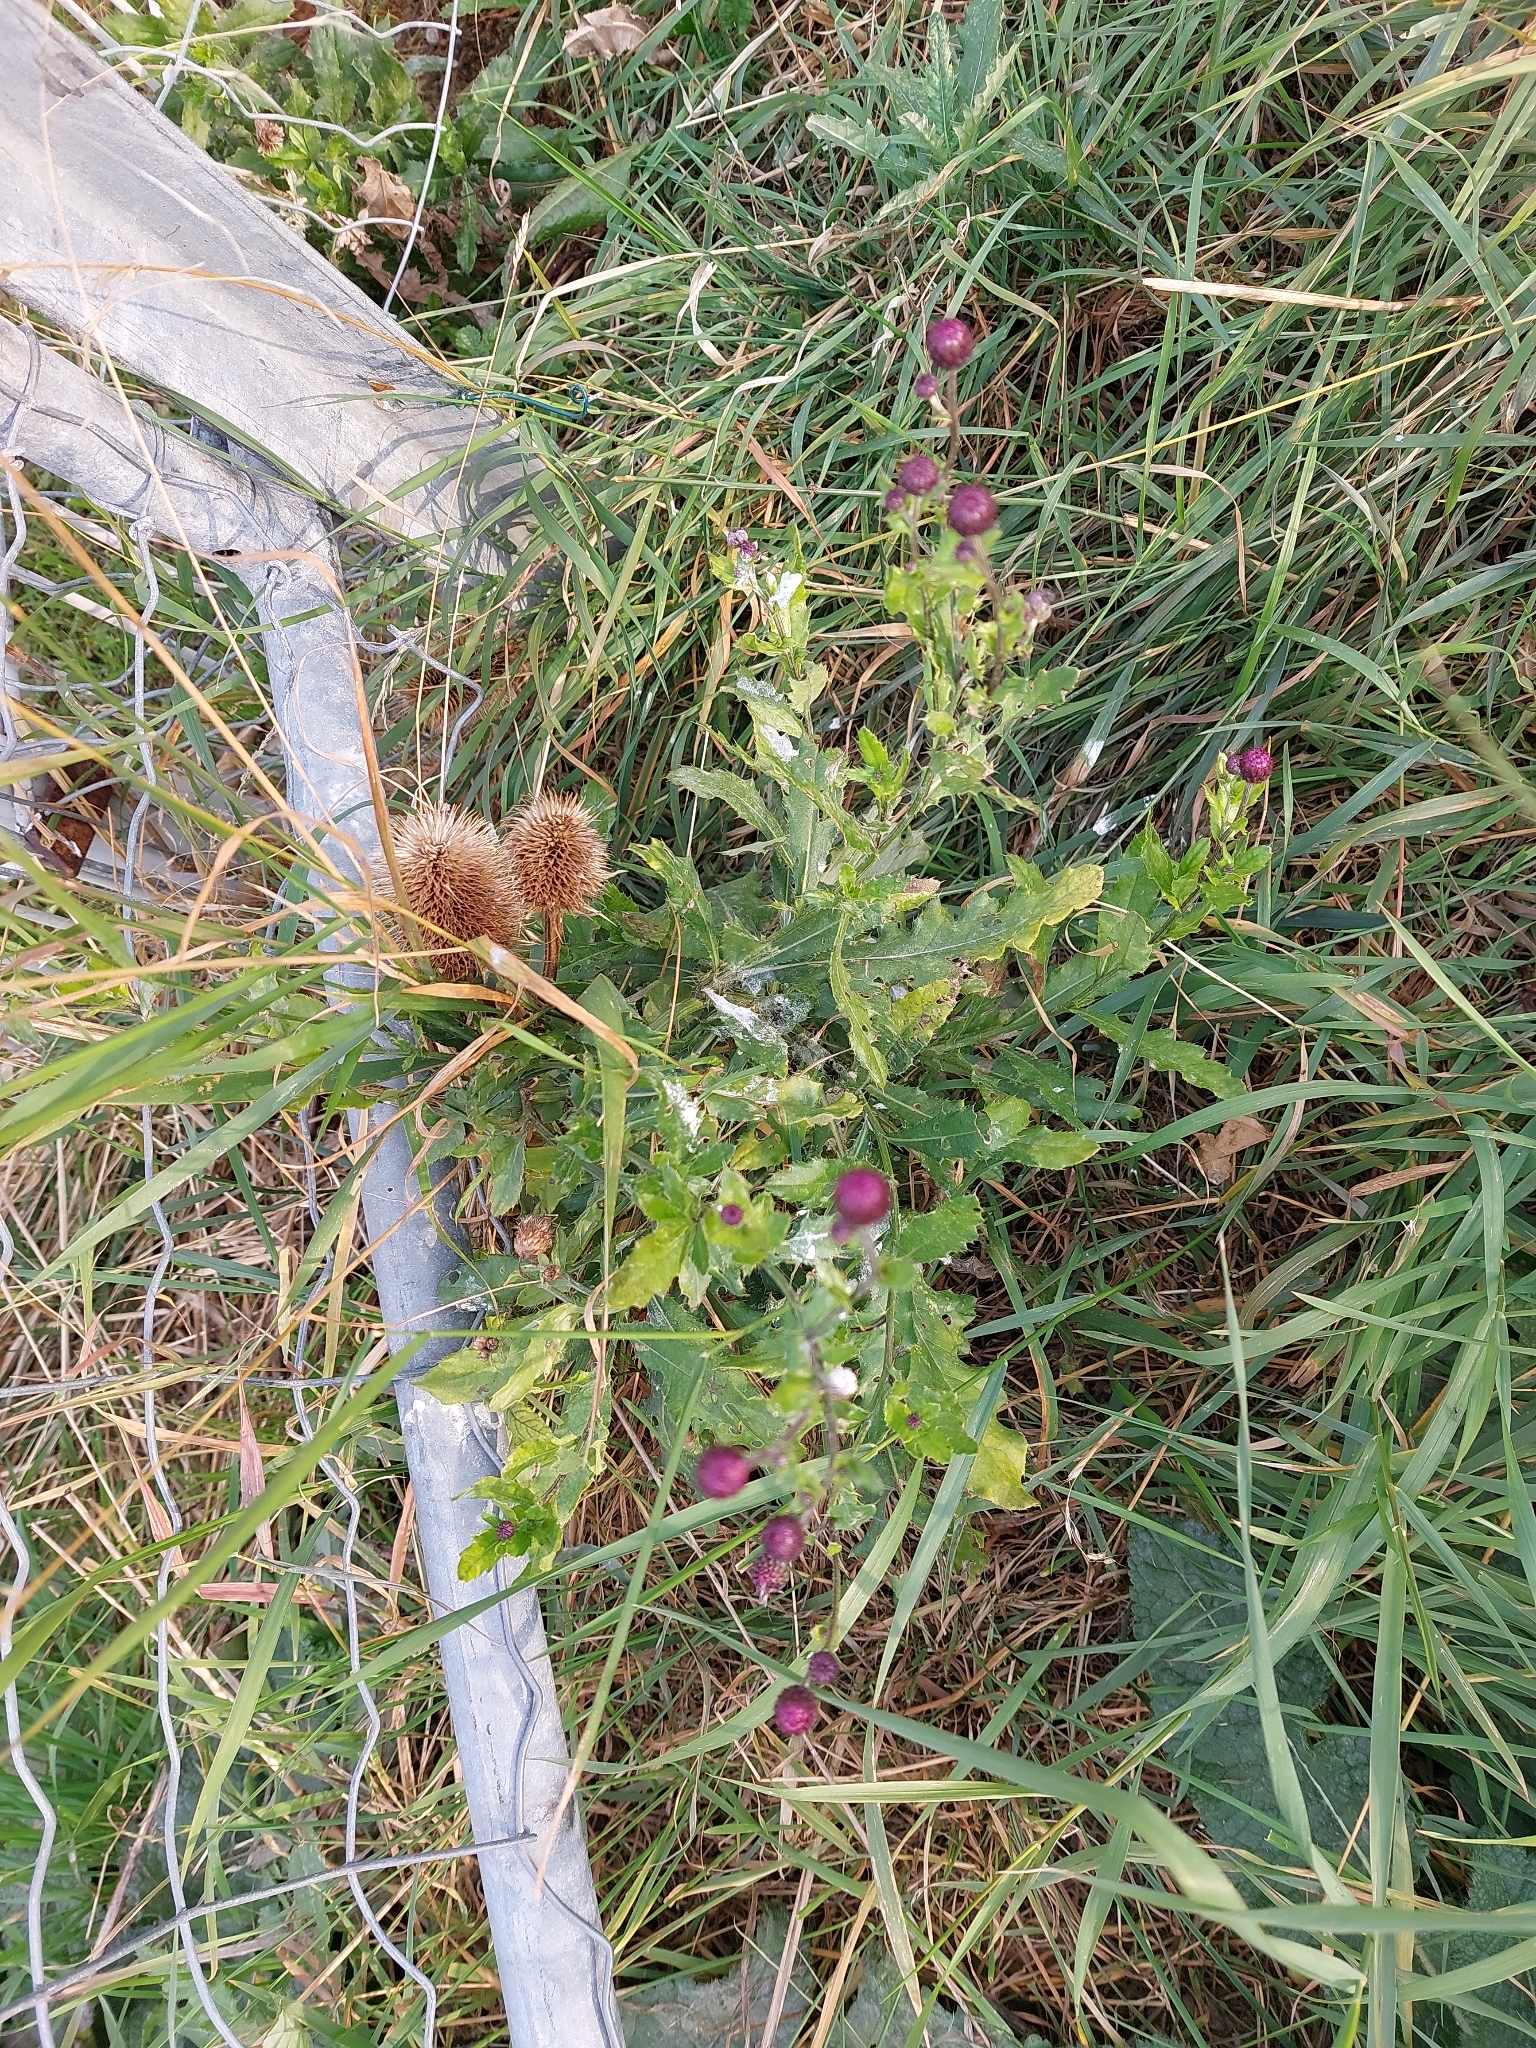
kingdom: Plantae
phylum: Tracheophyta
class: Magnoliopsida
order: Asterales
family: Asteraceae
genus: Cirsium
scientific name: Cirsium arvense
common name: Creeping thistle
